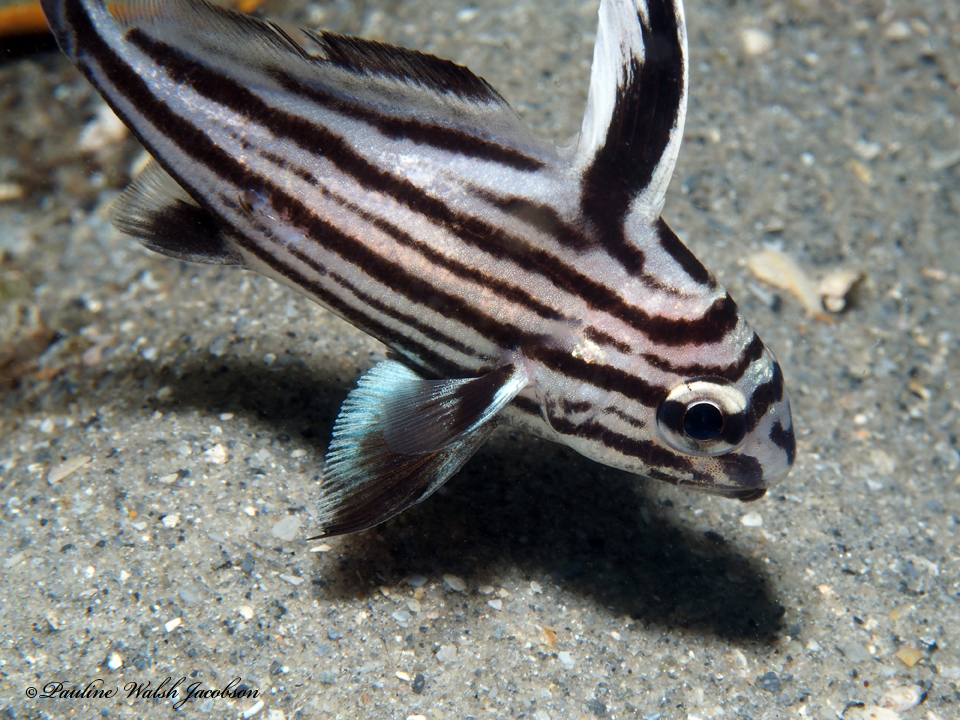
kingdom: Animalia
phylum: Chordata
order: Perciformes
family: Sciaenidae
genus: Pareques
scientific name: Pareques acuminatus
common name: High-hat
